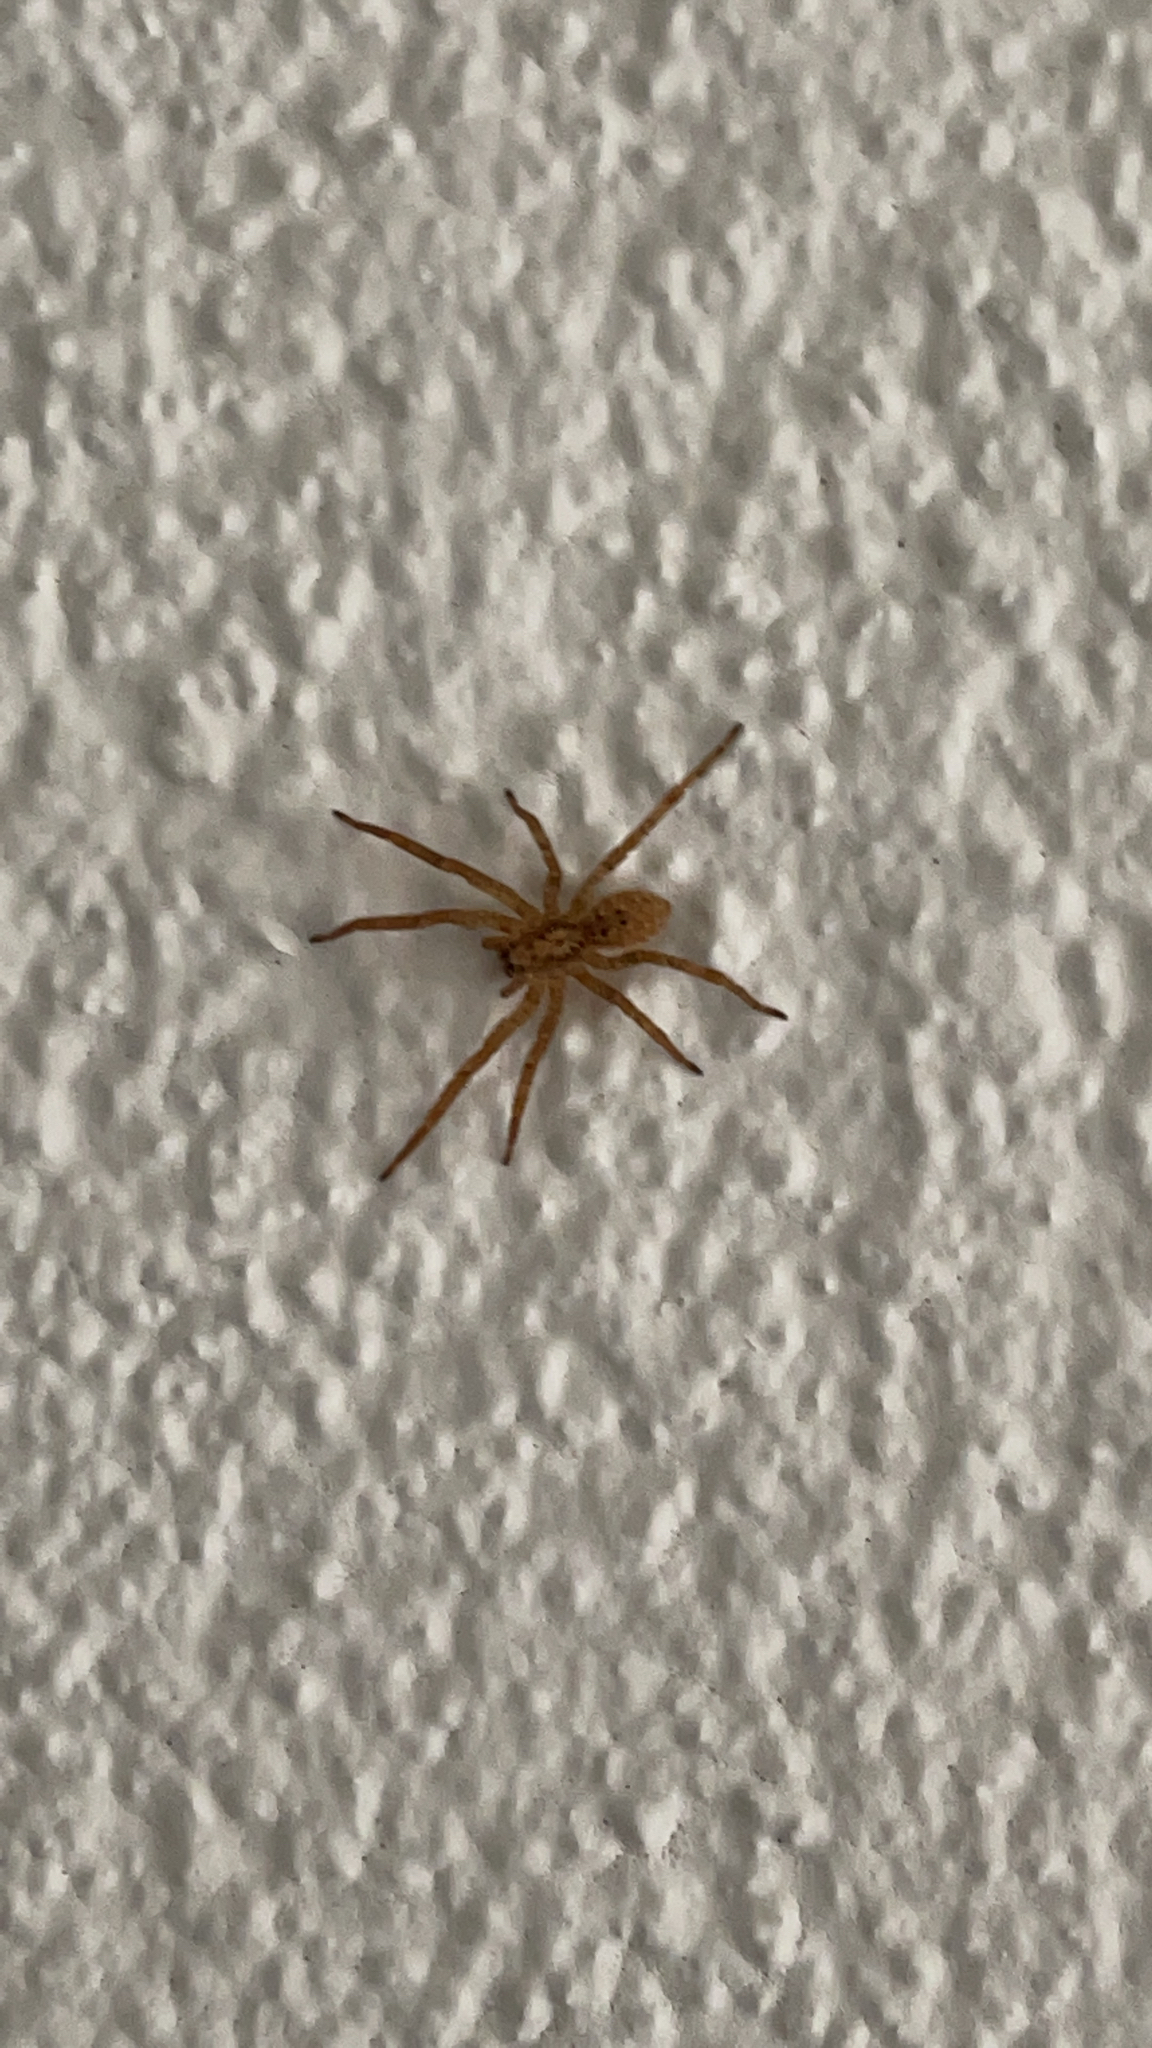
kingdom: Animalia
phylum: Arthropoda
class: Arachnida
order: Araneae
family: Zoropsidae
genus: Zoropsis
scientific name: Zoropsis spinimana
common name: Zoropsid spider
